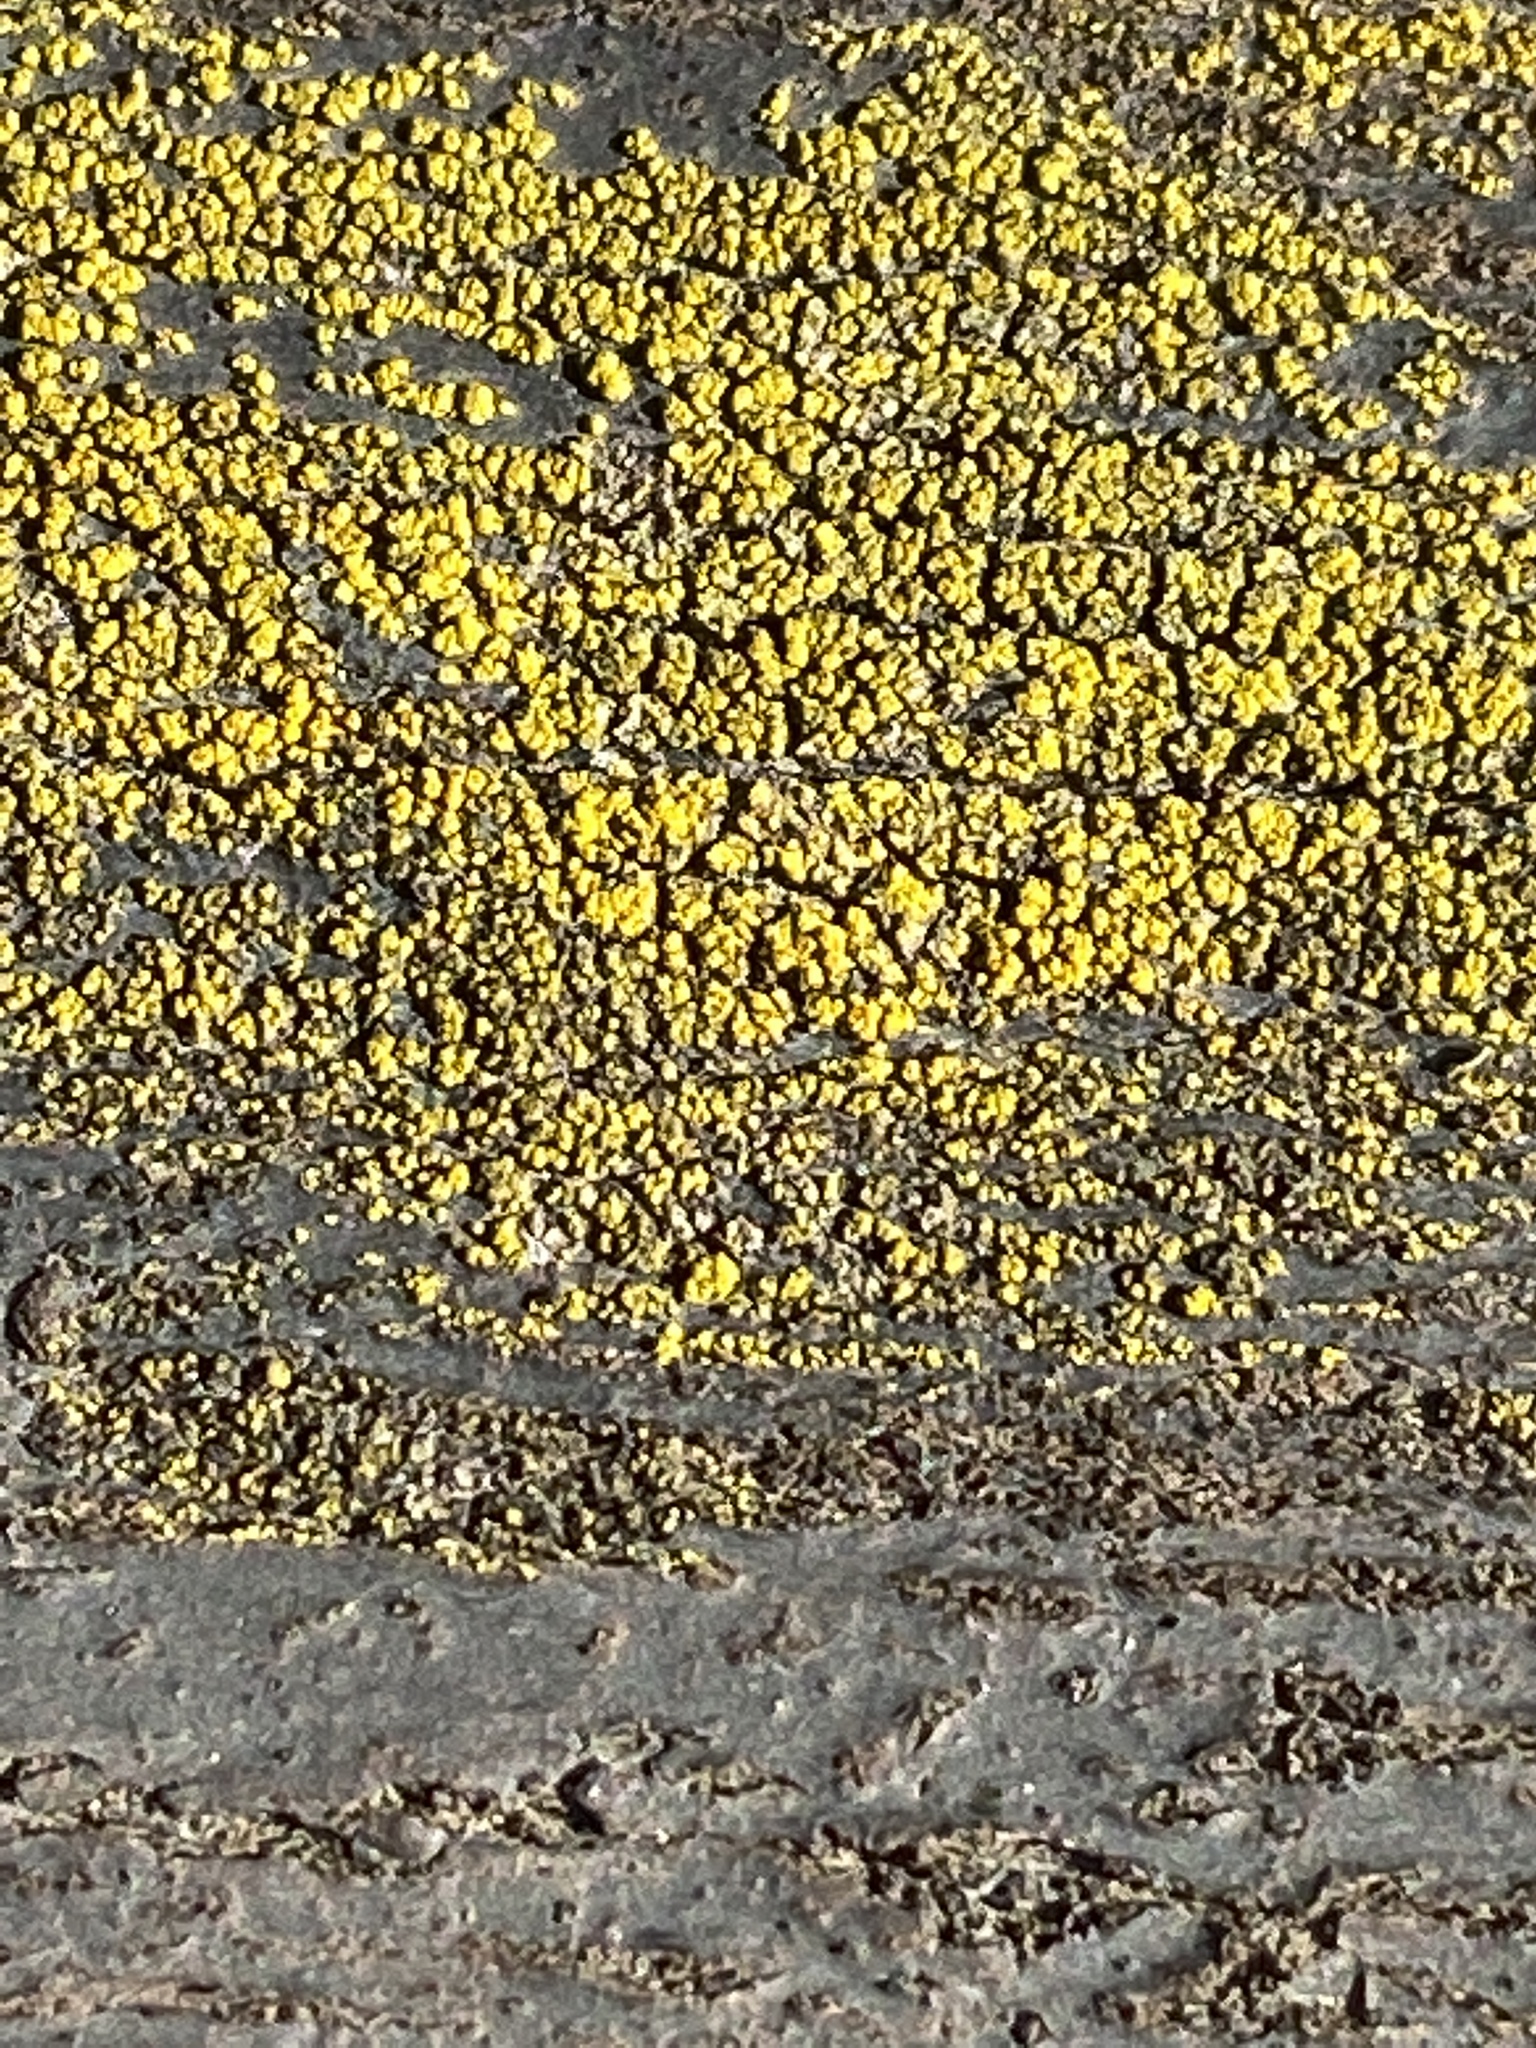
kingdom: Fungi
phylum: Ascomycota
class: Candelariomycetes
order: Candelariales
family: Candelariaceae
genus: Candelariella
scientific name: Candelariella vitellina
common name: Common goldspeck
